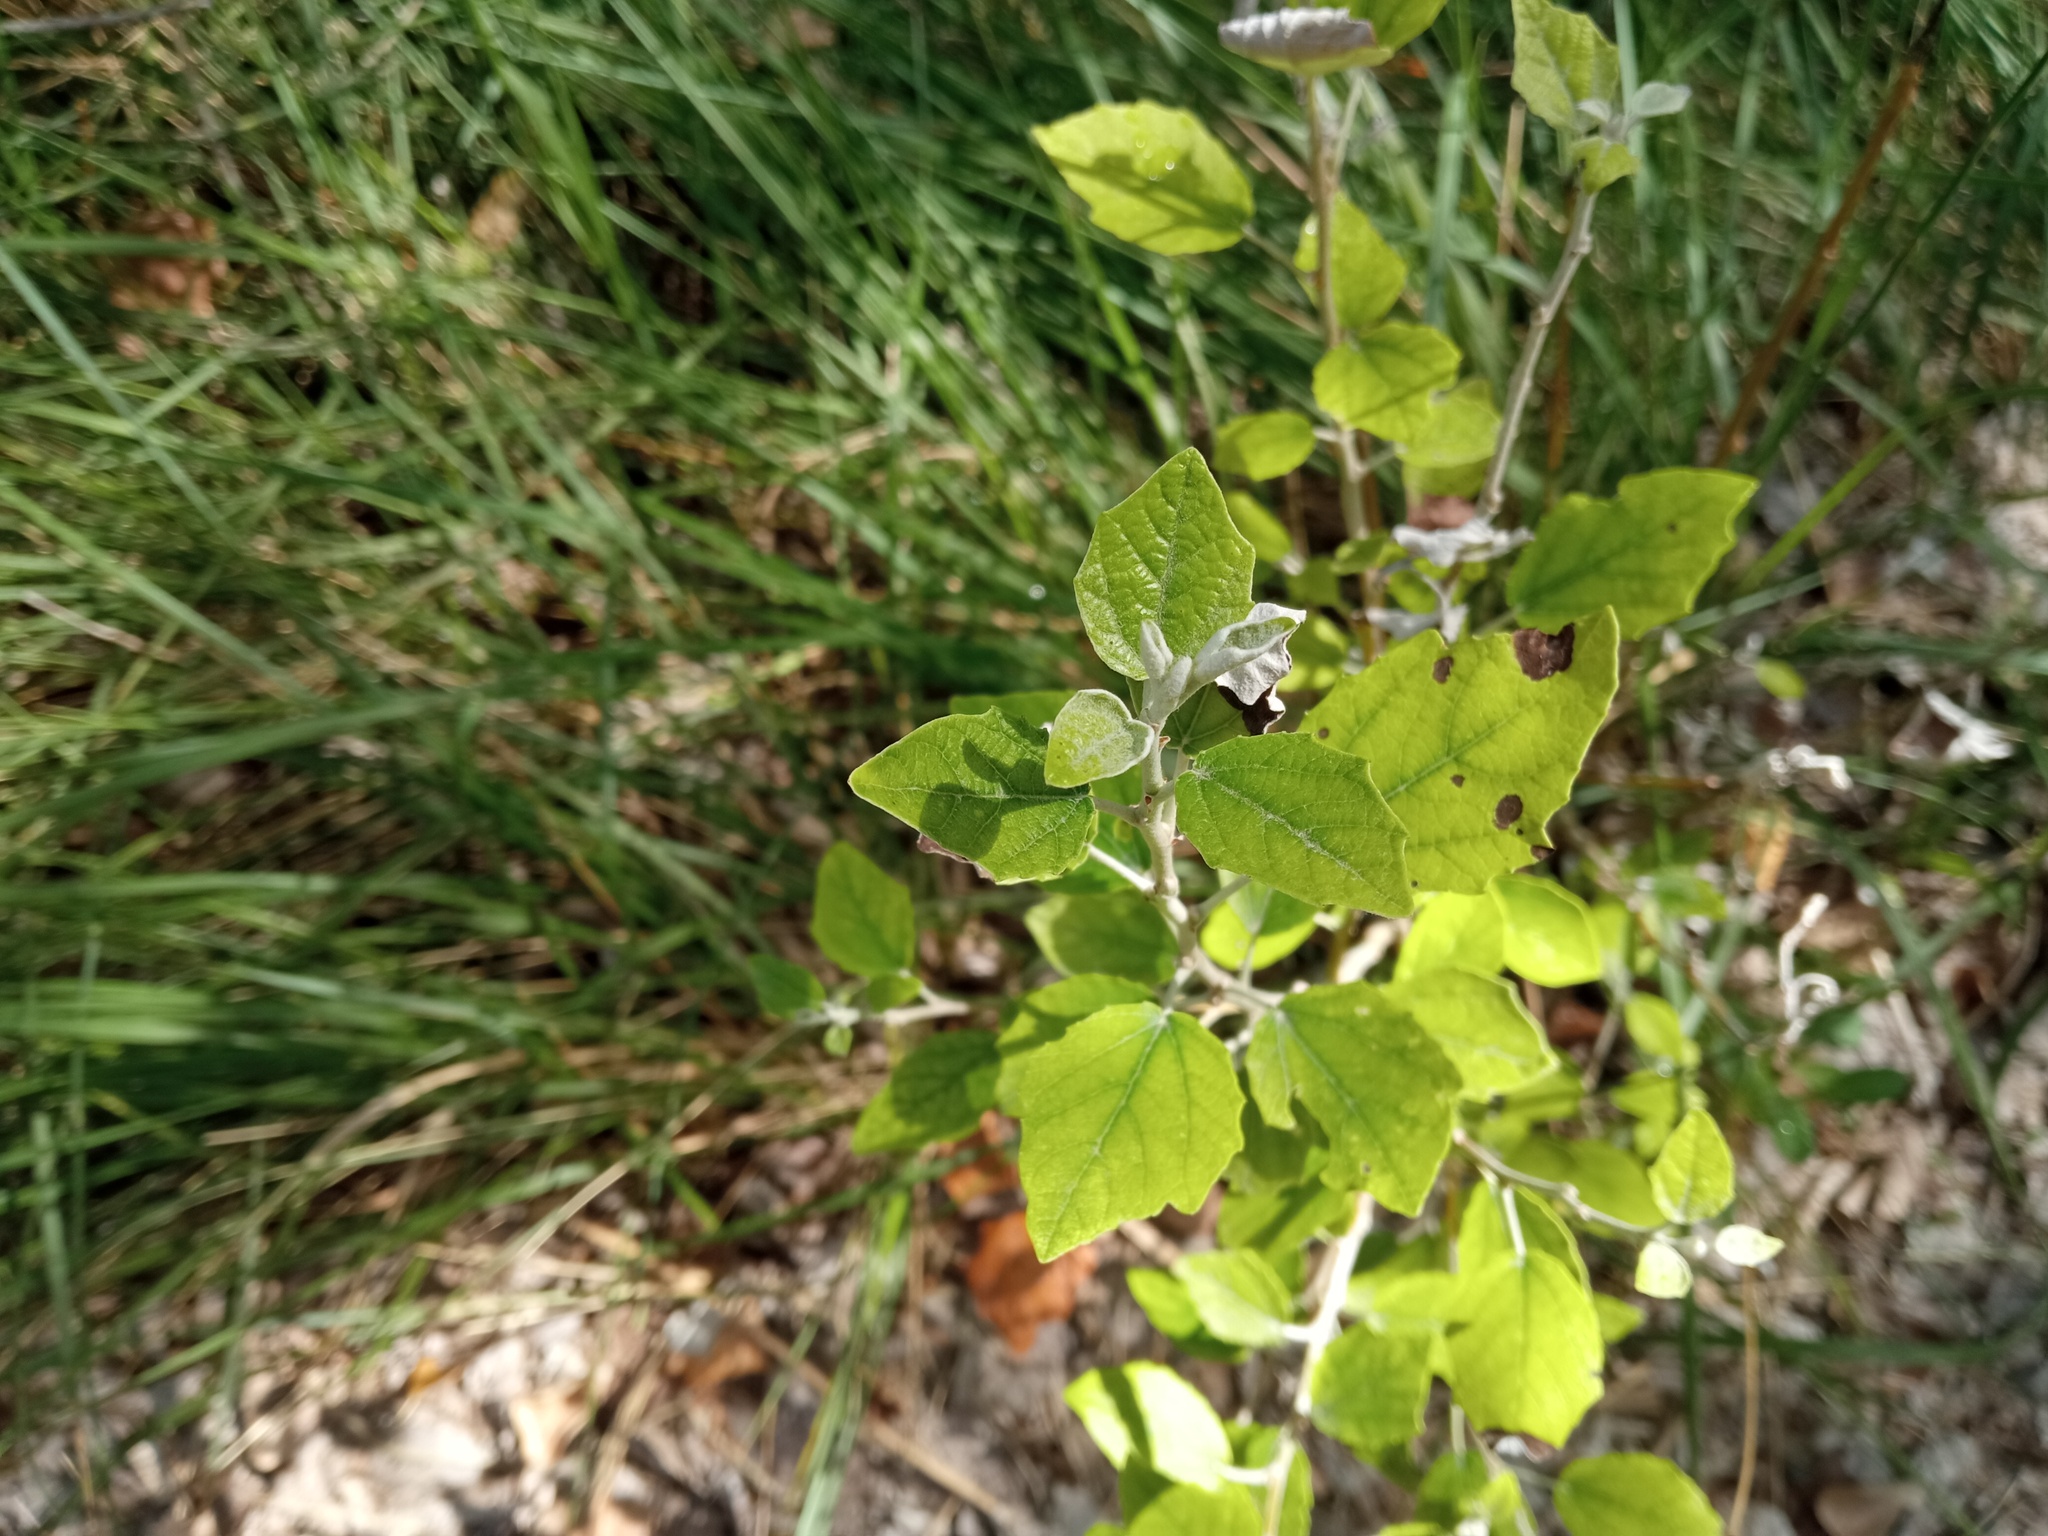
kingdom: Plantae
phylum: Tracheophyta
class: Magnoliopsida
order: Malpighiales
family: Salicaceae
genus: Populus
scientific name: Populus alba
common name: White poplar
